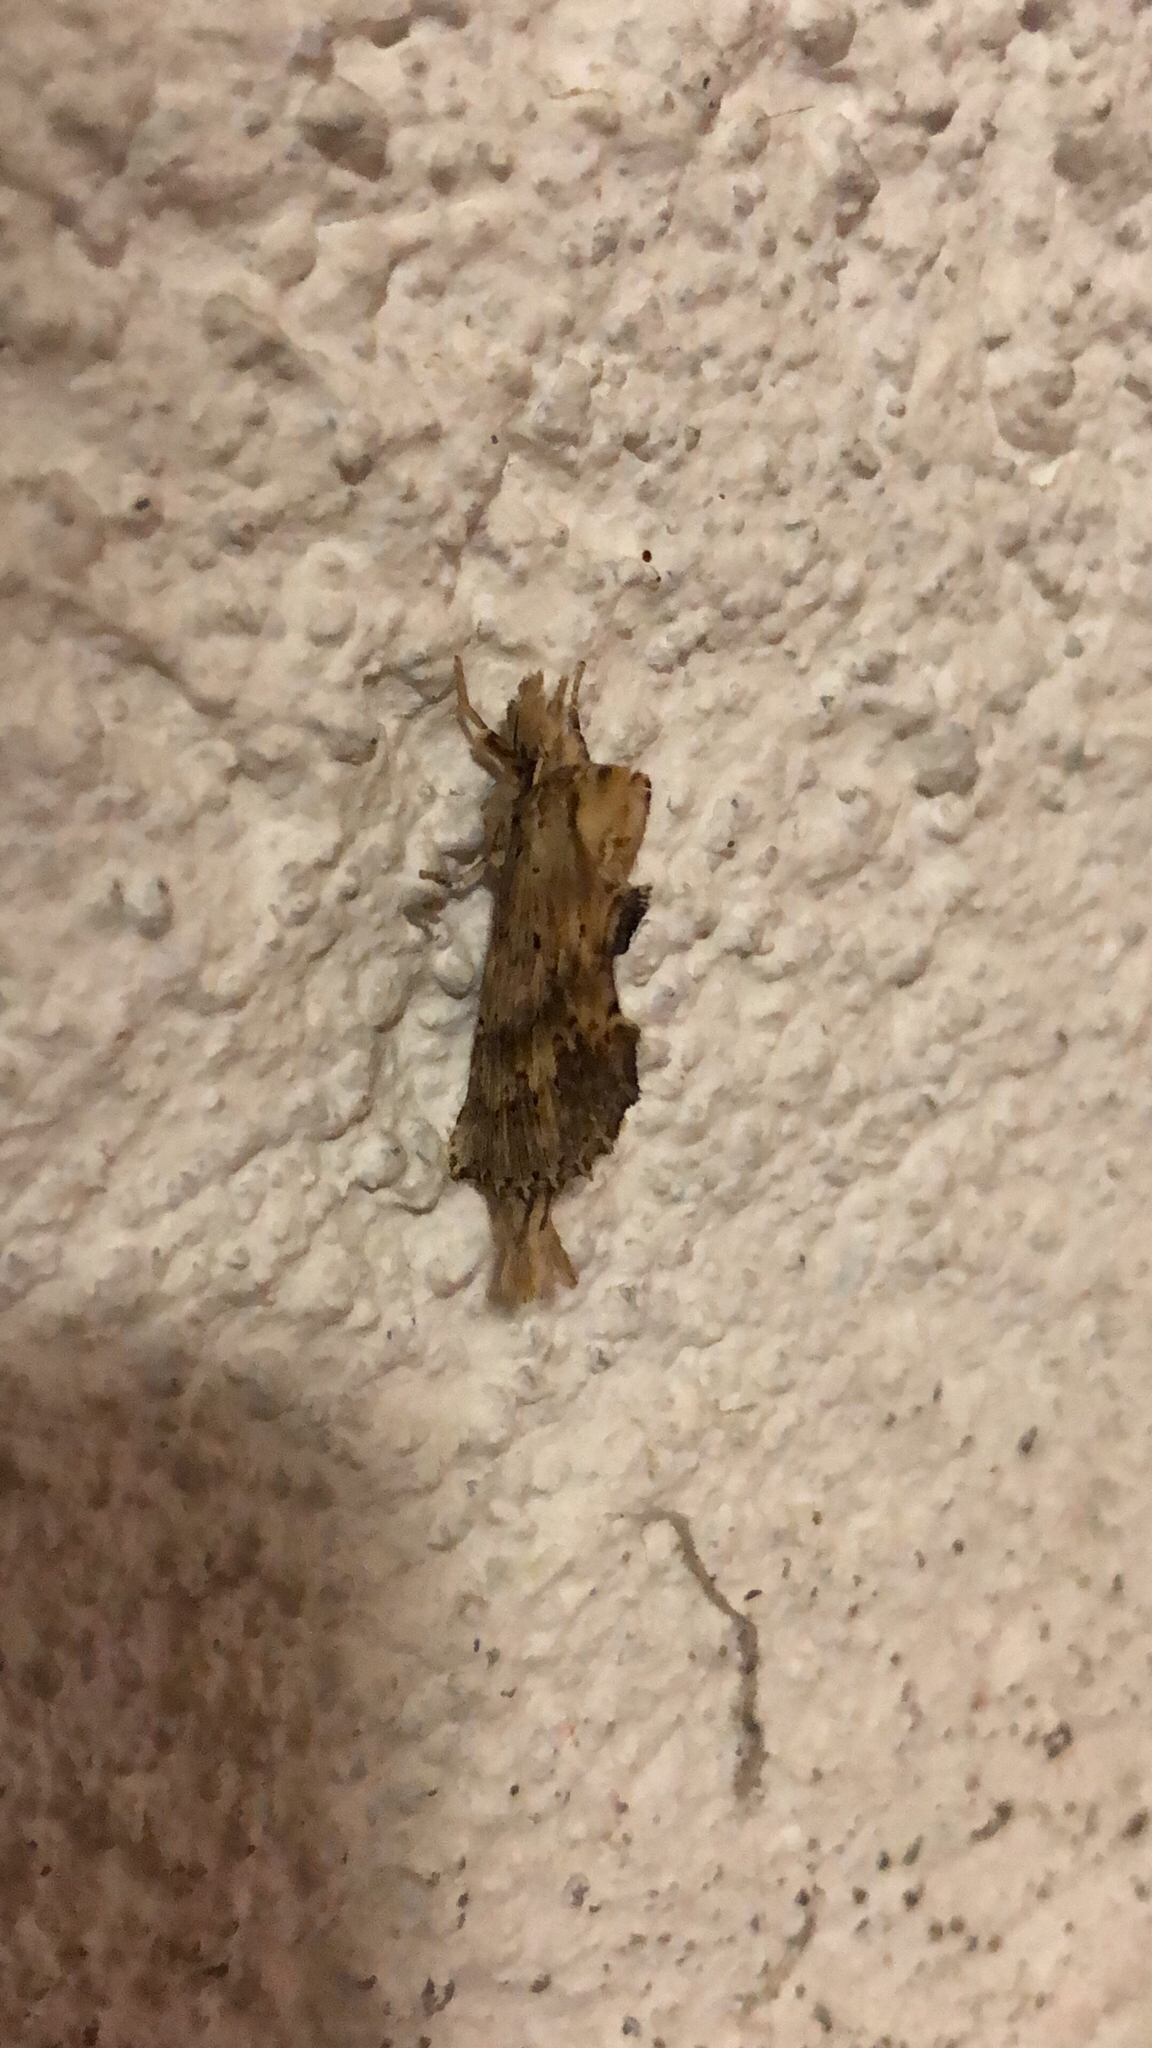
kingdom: Animalia
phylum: Arthropoda
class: Insecta
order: Lepidoptera
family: Notodontidae
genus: Pterostoma
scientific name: Pterostoma palpina
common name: Pale prominent
